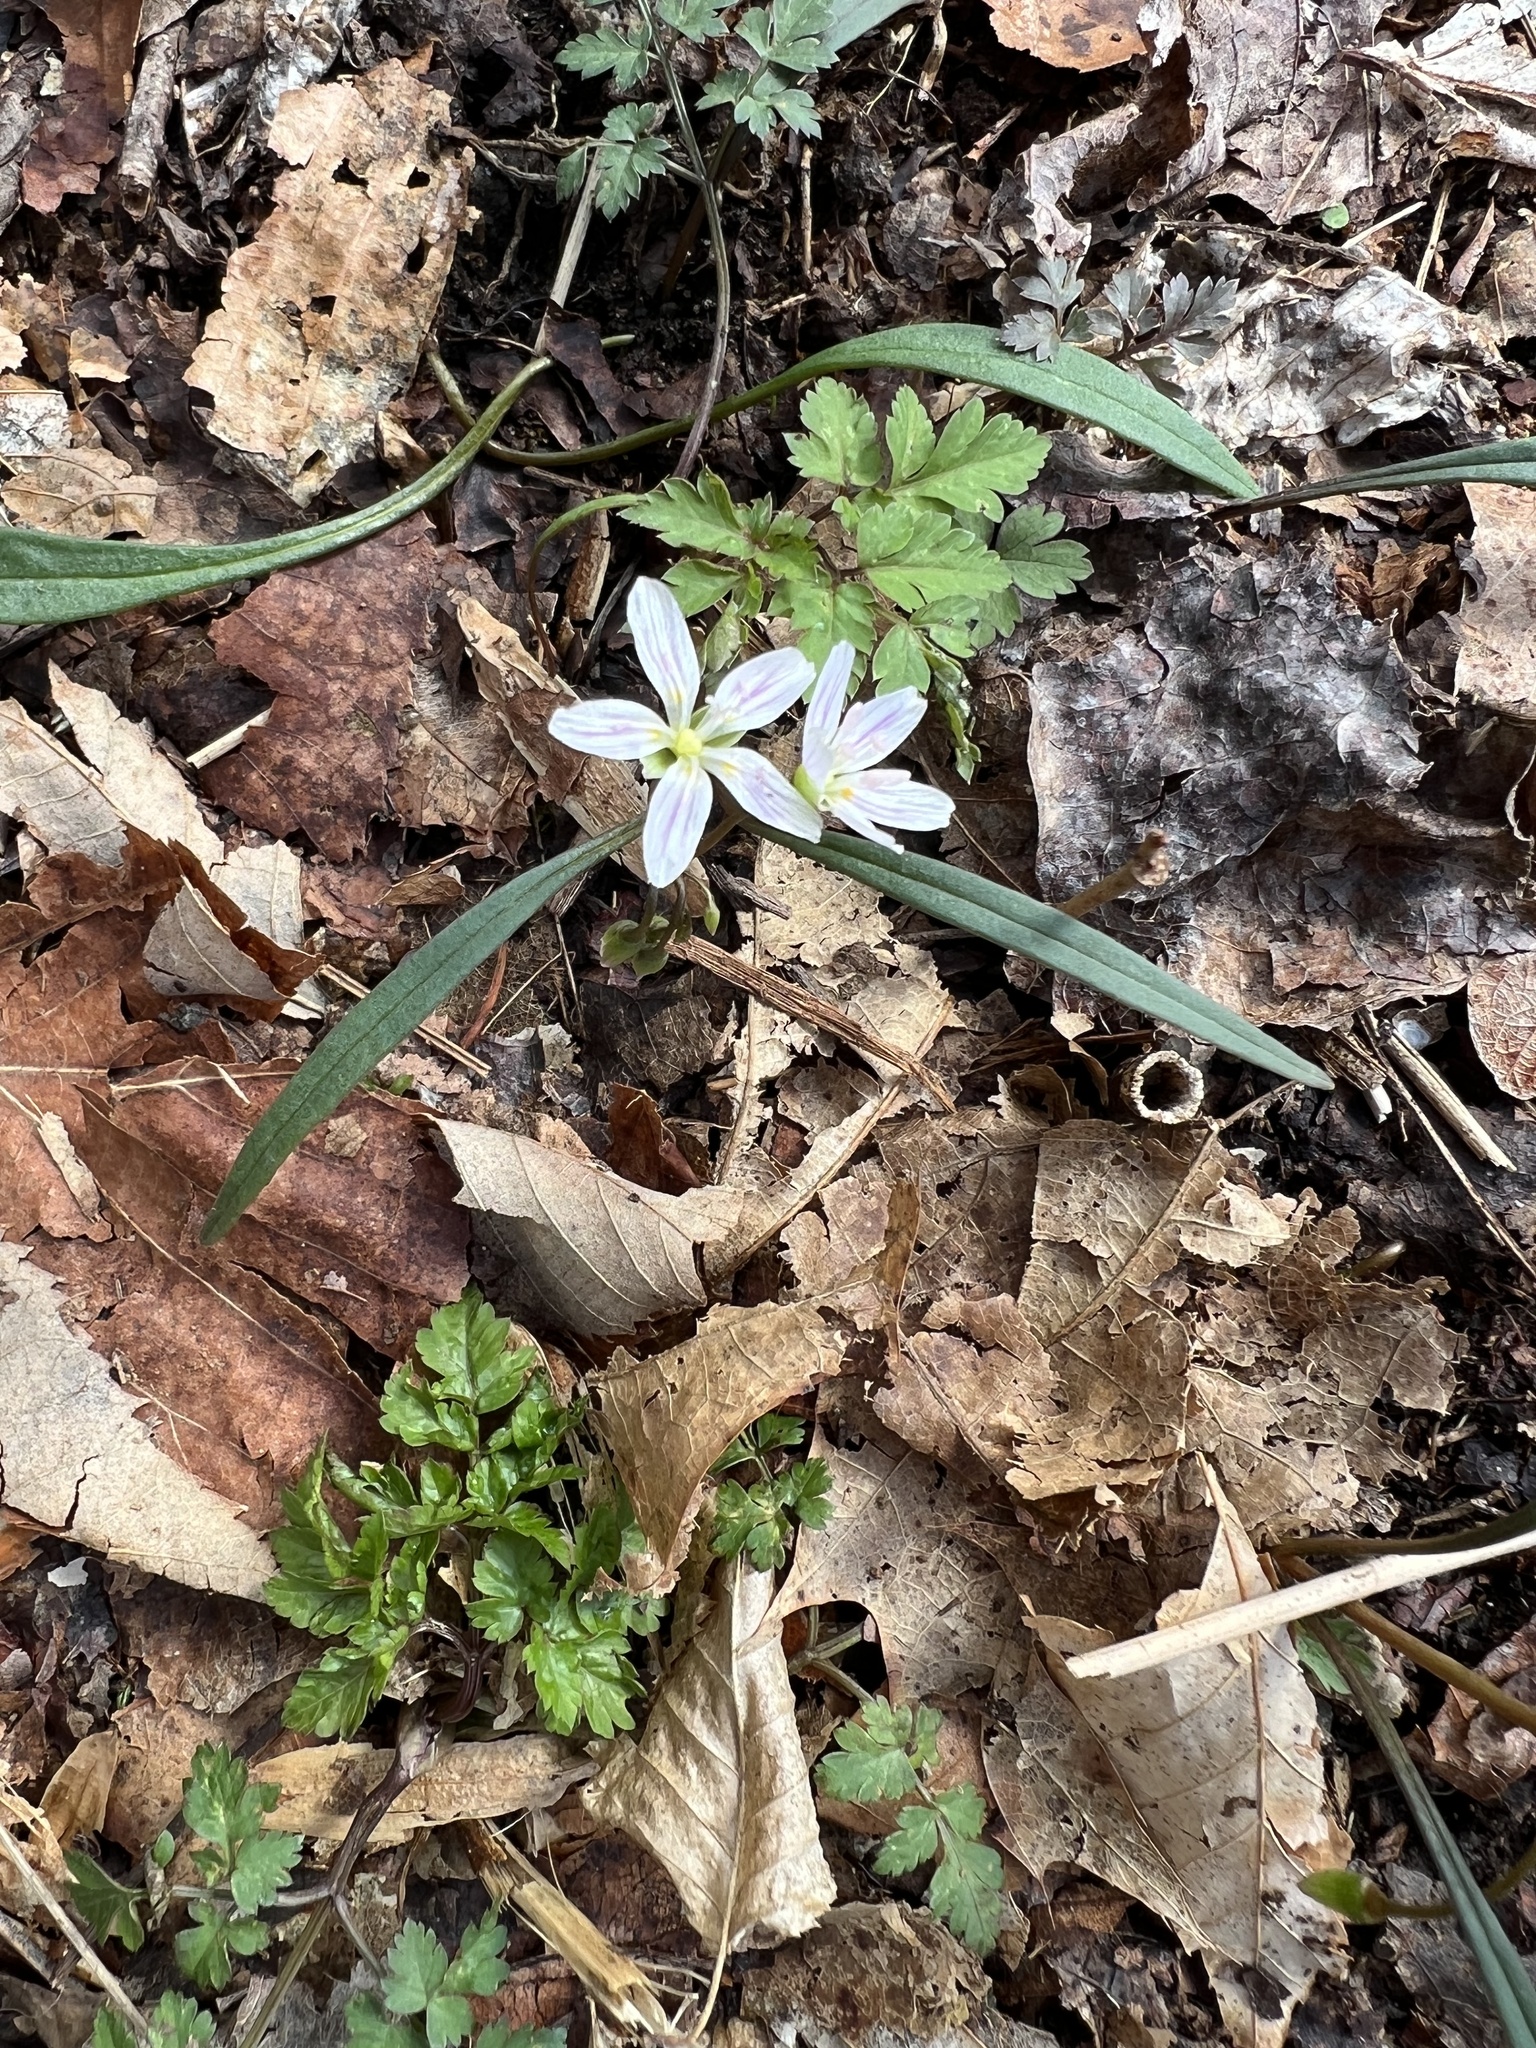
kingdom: Plantae
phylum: Tracheophyta
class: Magnoliopsida
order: Caryophyllales
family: Montiaceae
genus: Claytonia
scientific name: Claytonia virginica
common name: Virginia springbeauty
